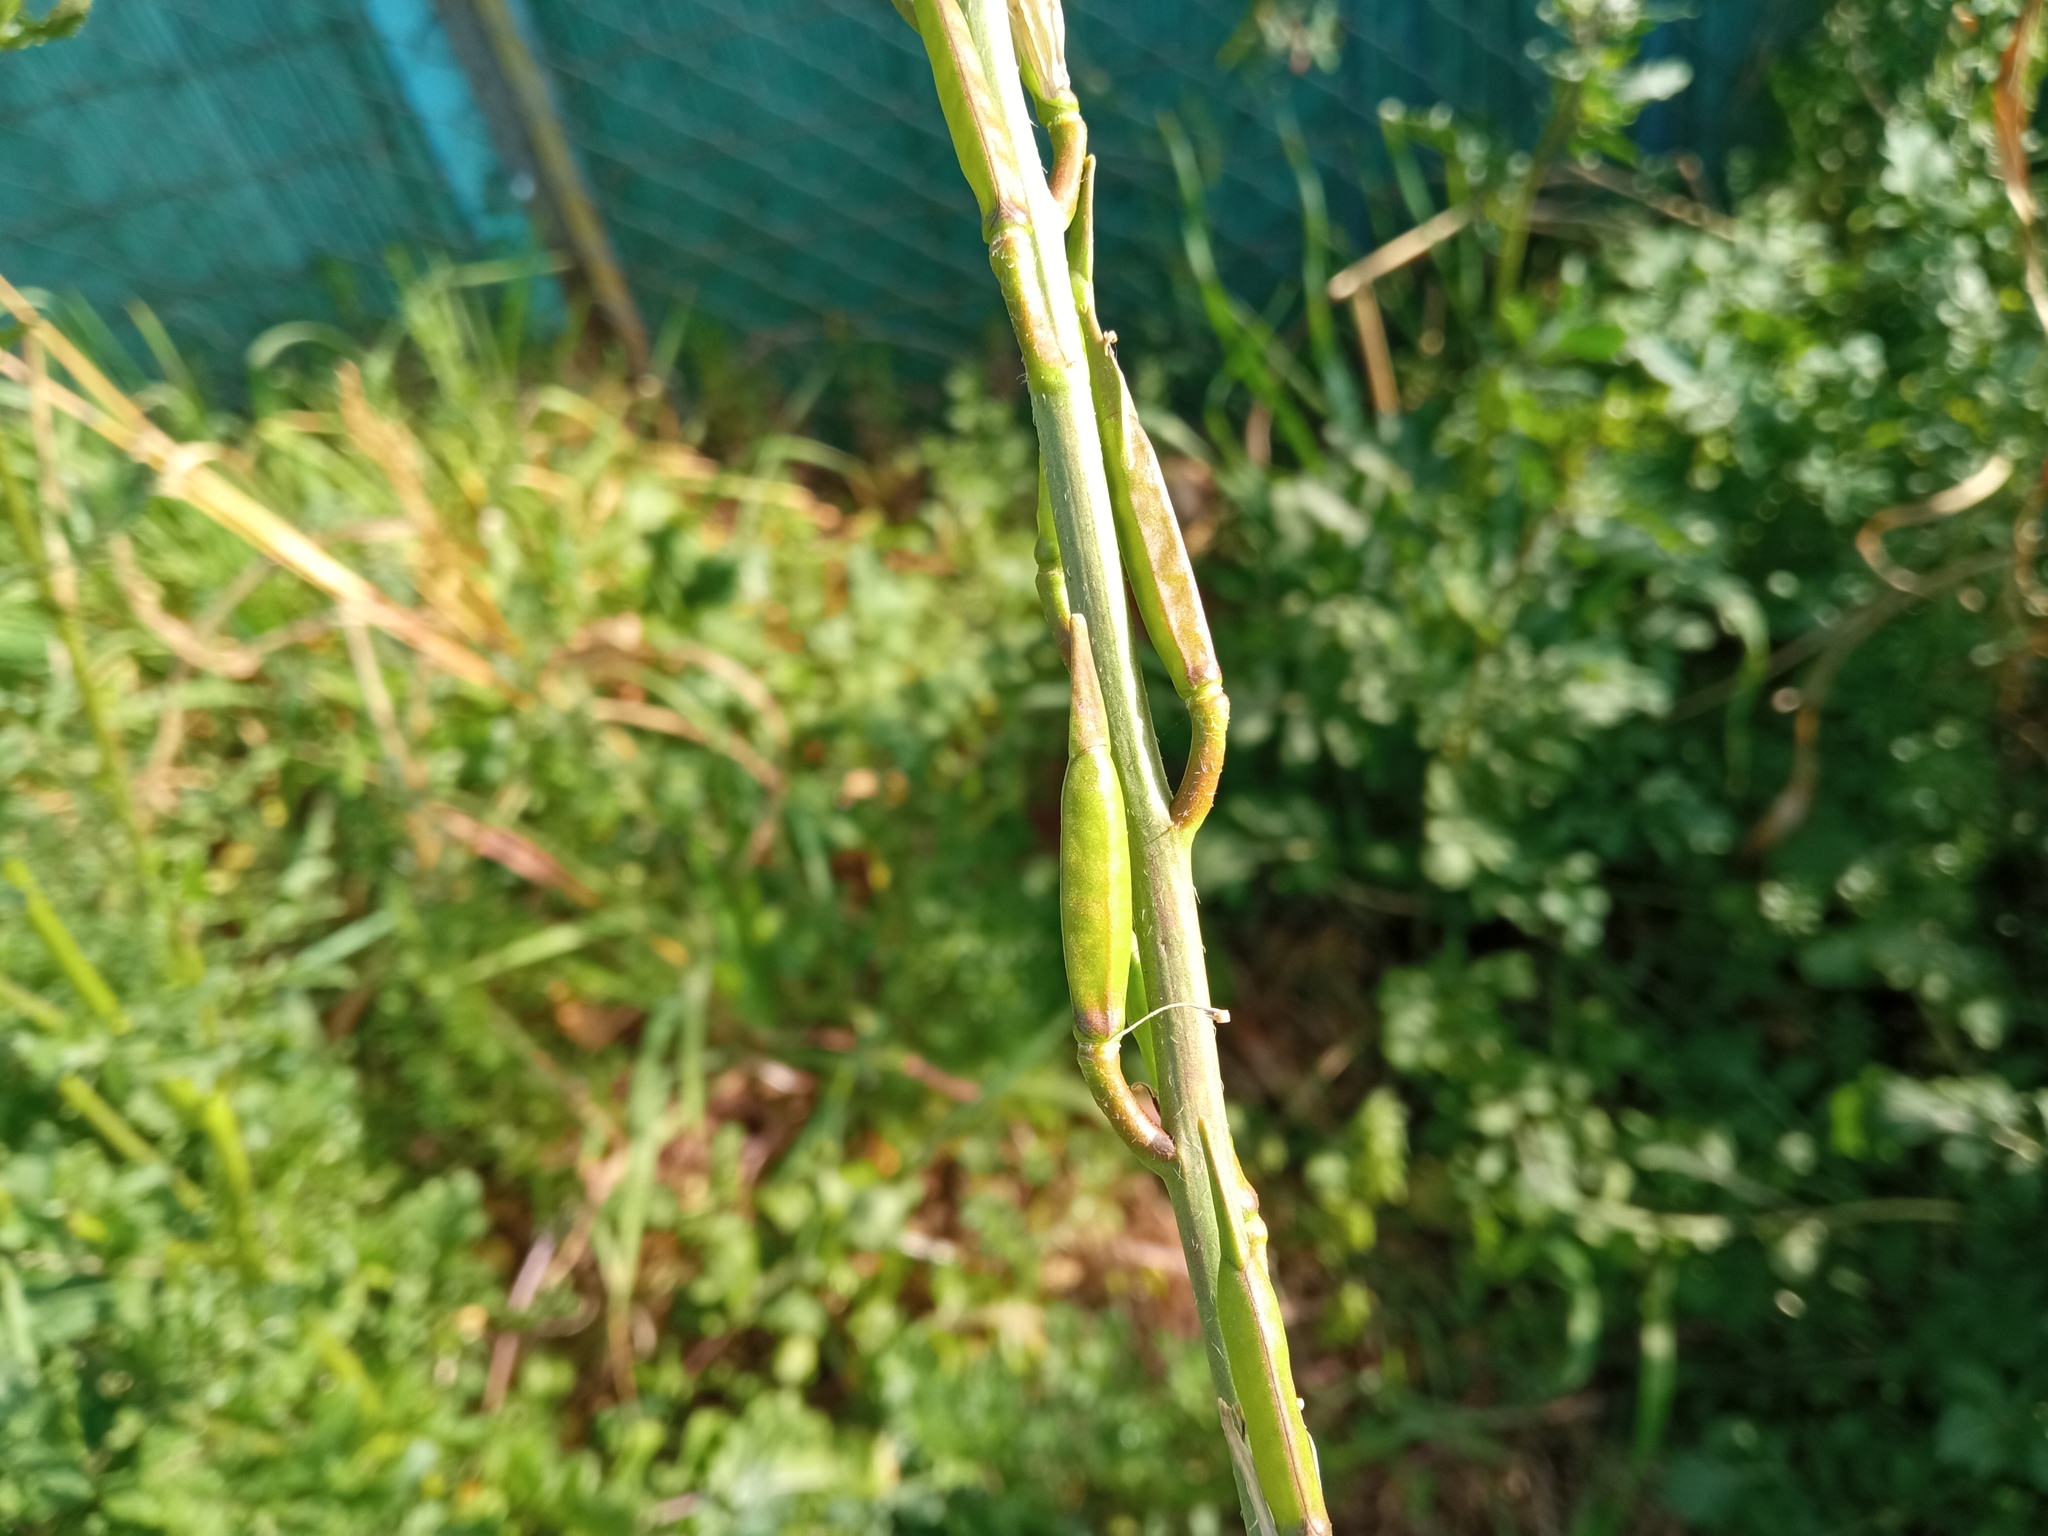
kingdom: Plantae
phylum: Tracheophyta
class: Magnoliopsida
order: Brassicales
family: Brassicaceae
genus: Eruca
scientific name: Eruca vesicaria
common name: Garden rocket
